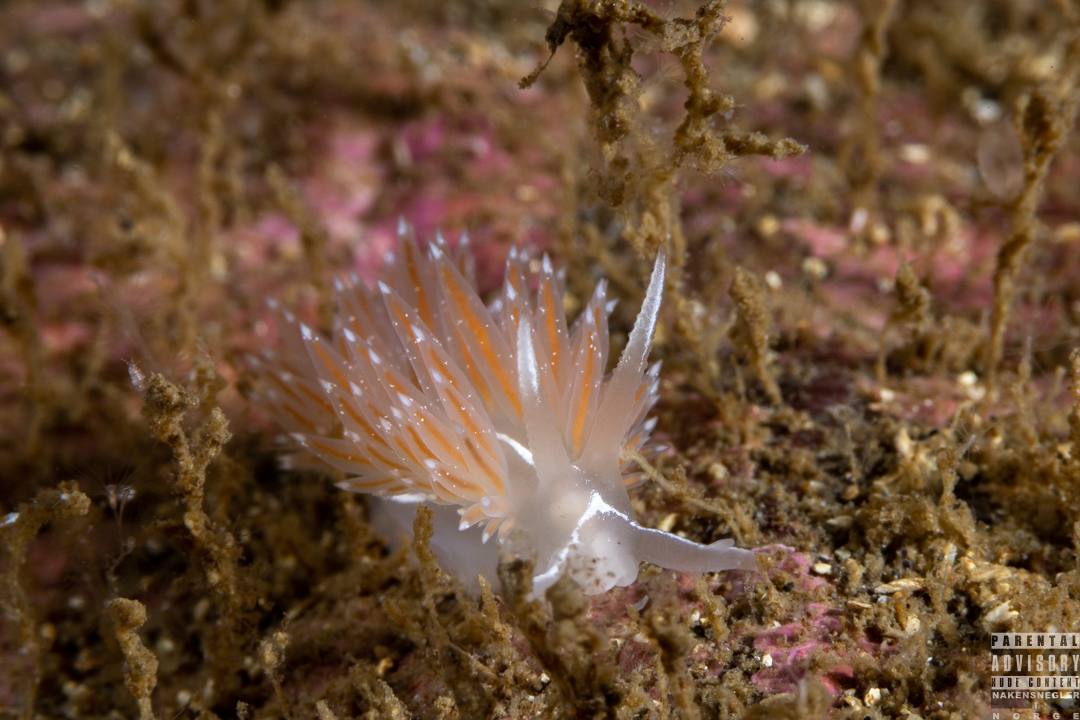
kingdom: Animalia
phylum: Mollusca
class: Gastropoda
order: Nudibranchia
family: Coryphellidae
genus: Coryphella
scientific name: Coryphella monicae
